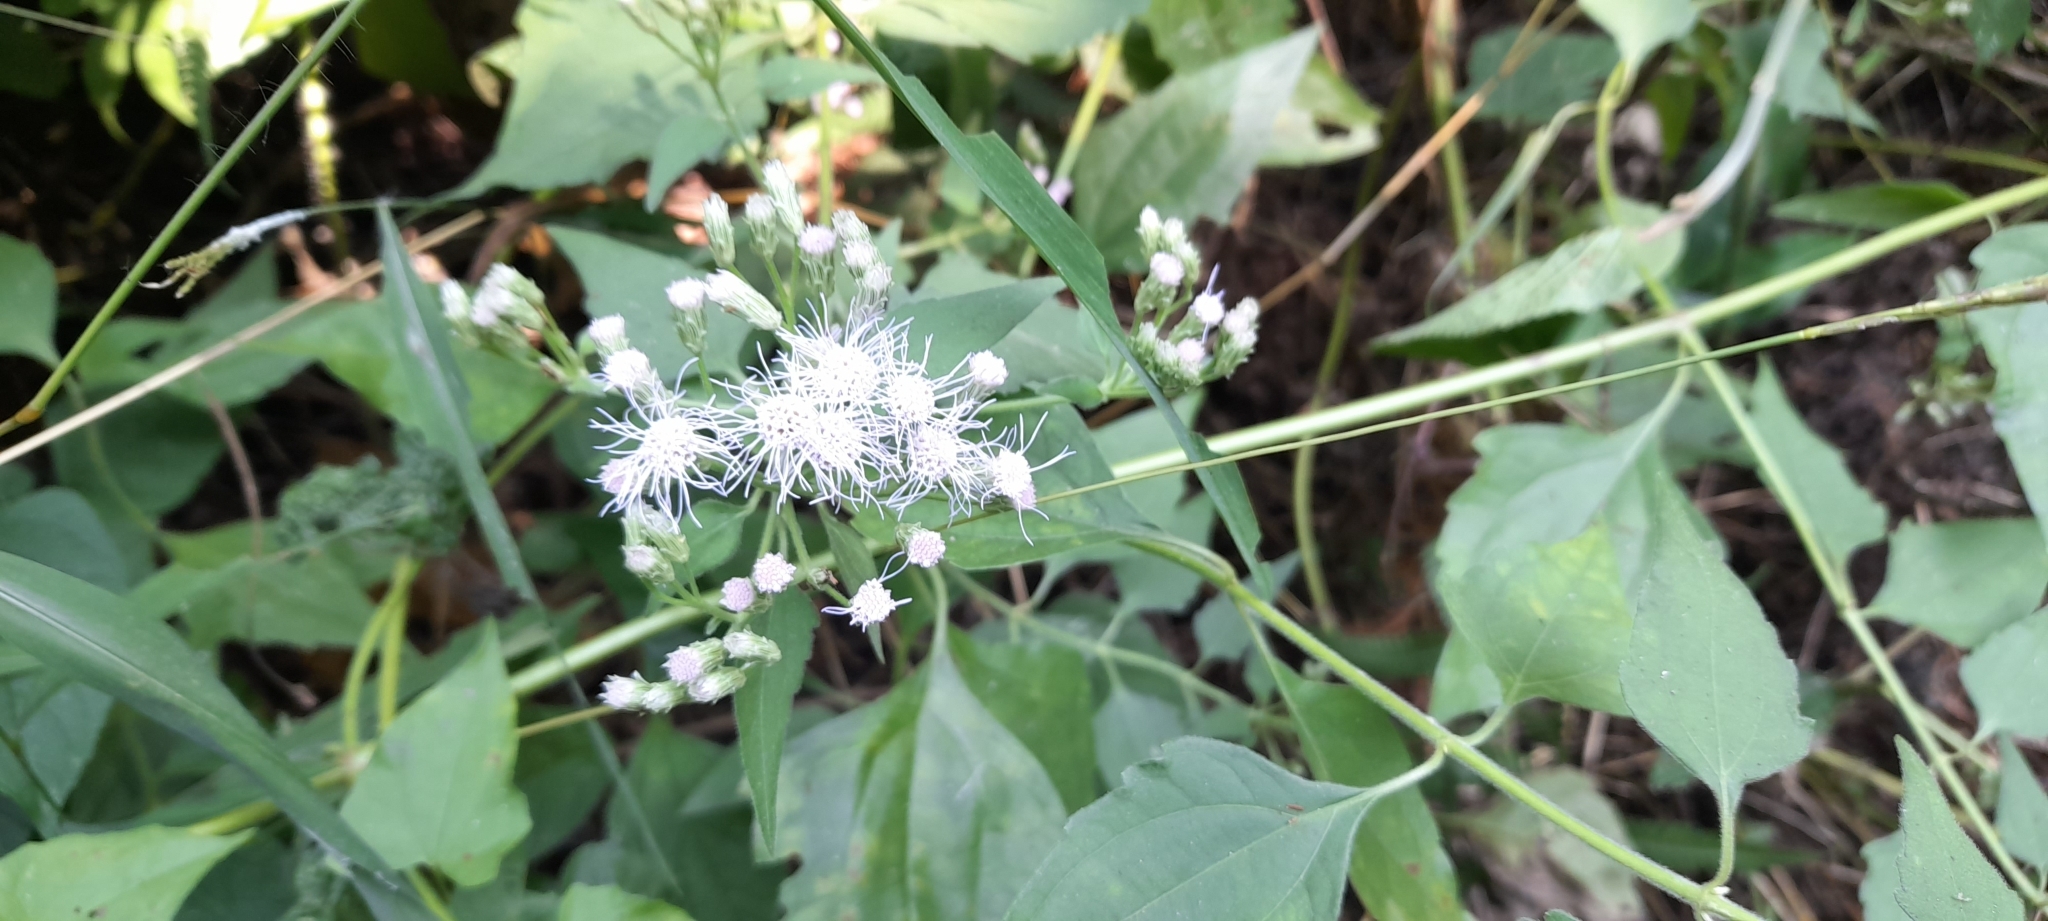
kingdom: Plantae
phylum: Tracheophyta
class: Magnoliopsida
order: Asterales
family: Asteraceae
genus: Chromolaena
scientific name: Chromolaena odorata
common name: Siamweed
